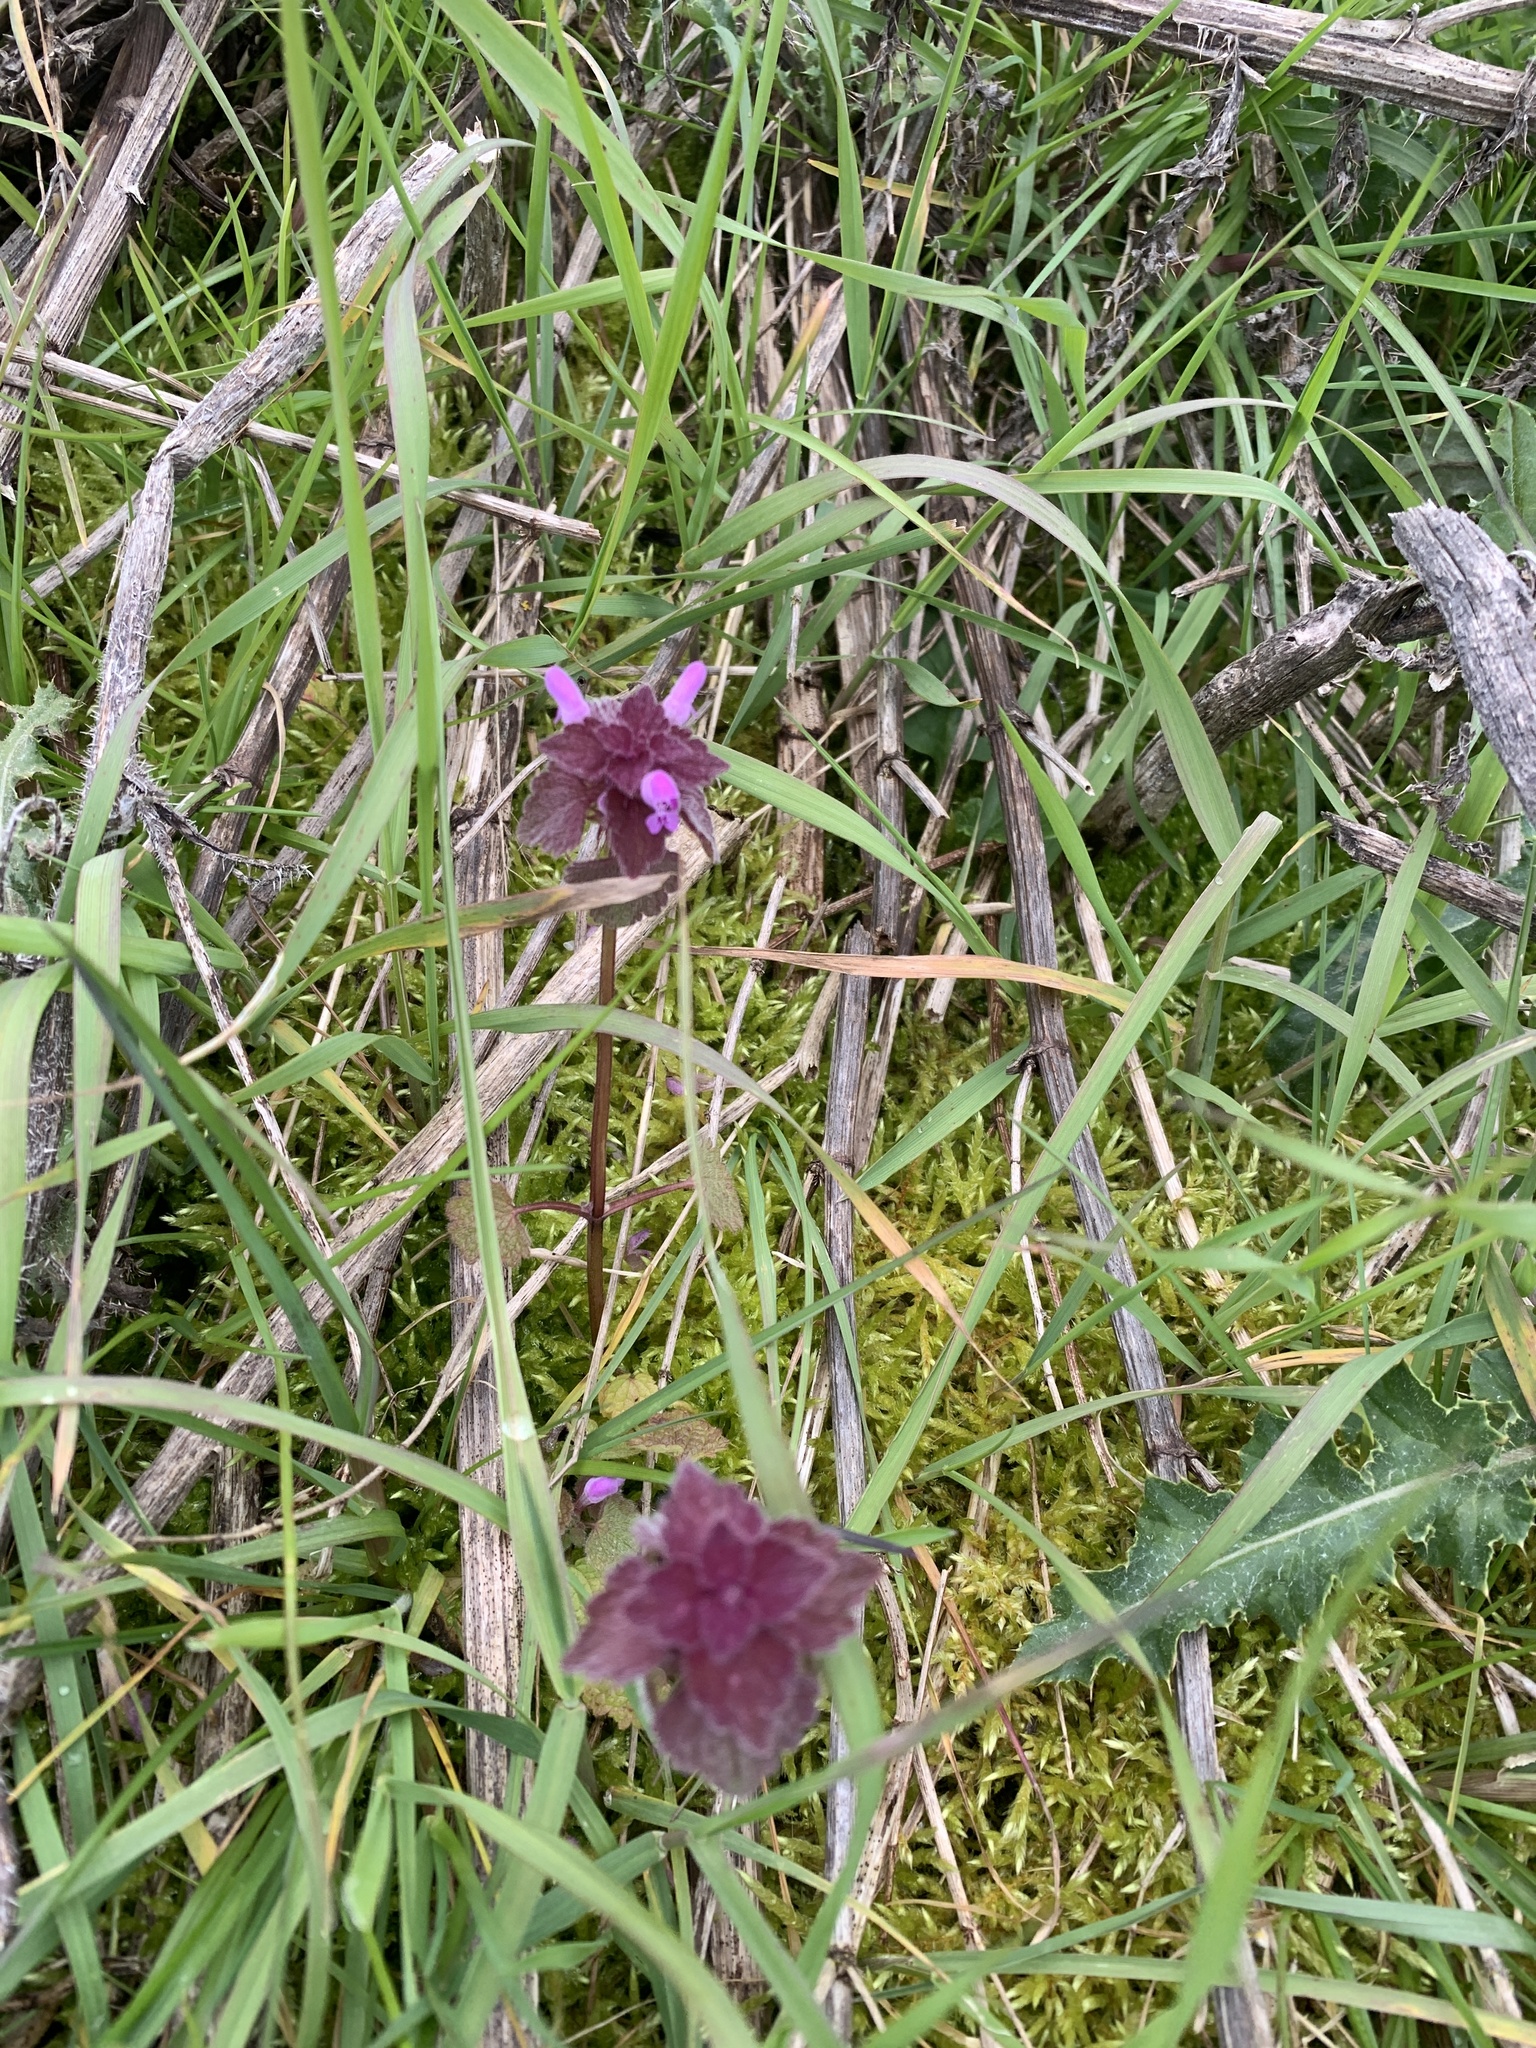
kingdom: Plantae
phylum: Tracheophyta
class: Magnoliopsida
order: Lamiales
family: Lamiaceae
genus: Lamium
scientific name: Lamium purpureum
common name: Red dead-nettle
